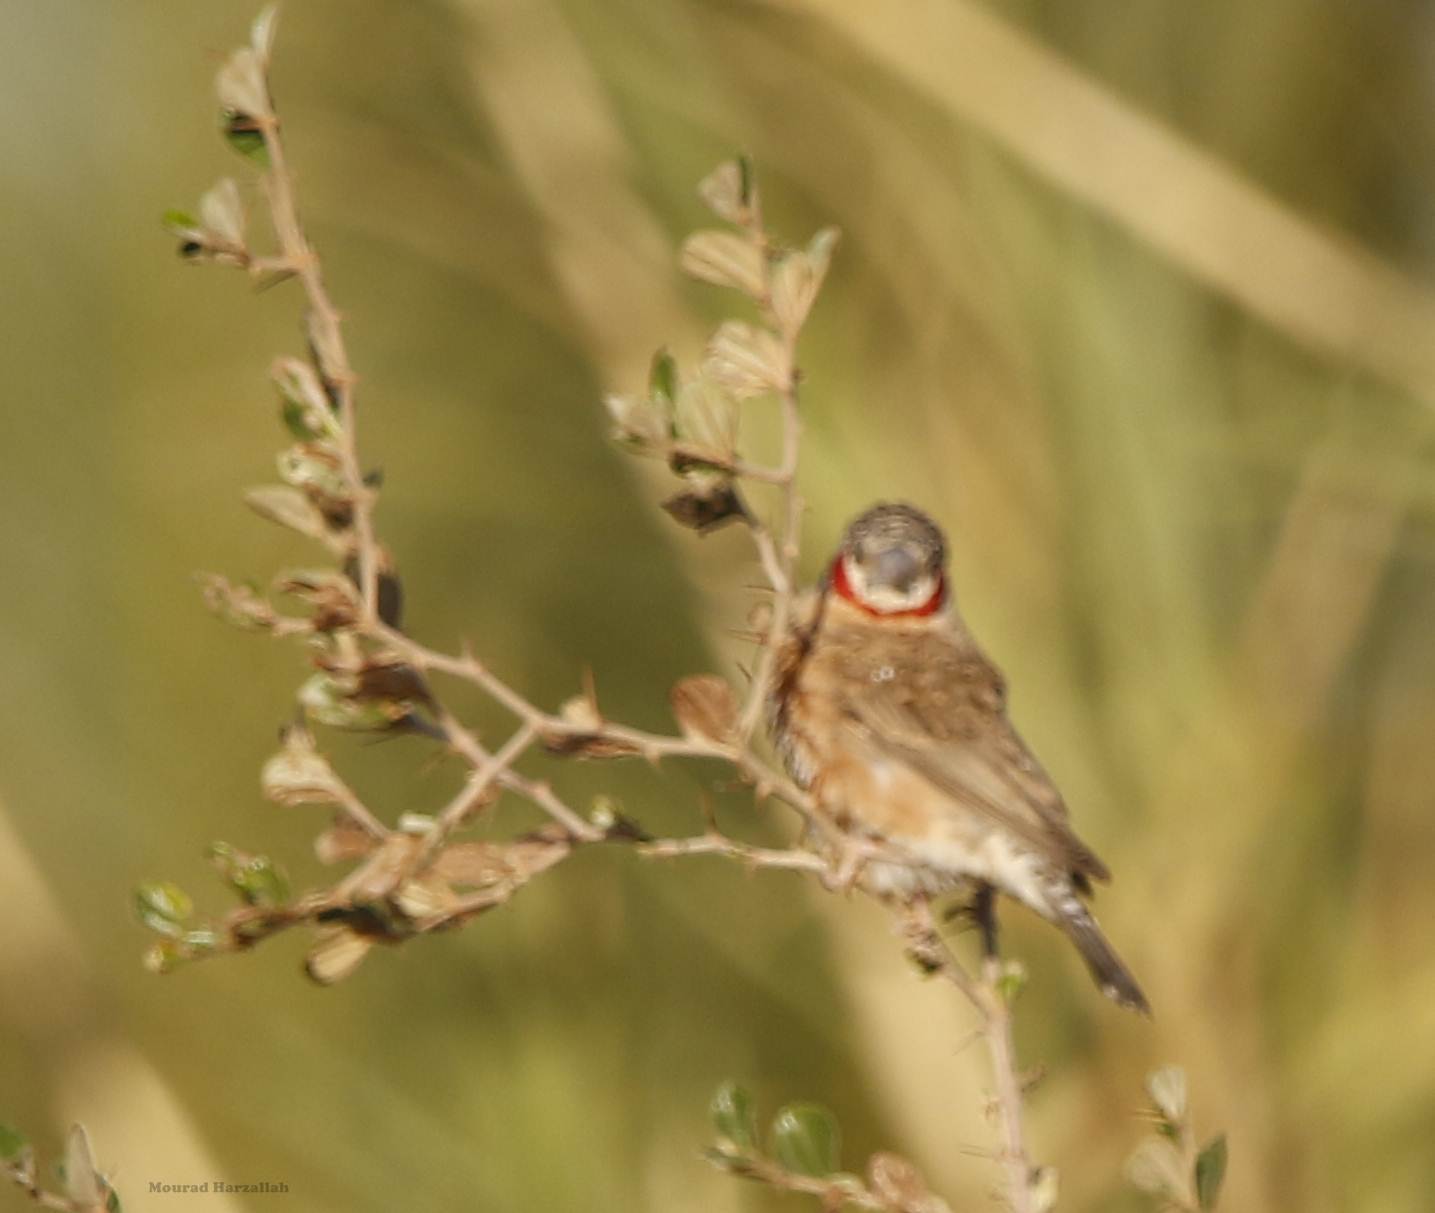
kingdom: Animalia
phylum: Chordata
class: Aves
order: Passeriformes
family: Estrildidae
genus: Amadina
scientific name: Amadina fasciata
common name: Cut-throat finch
